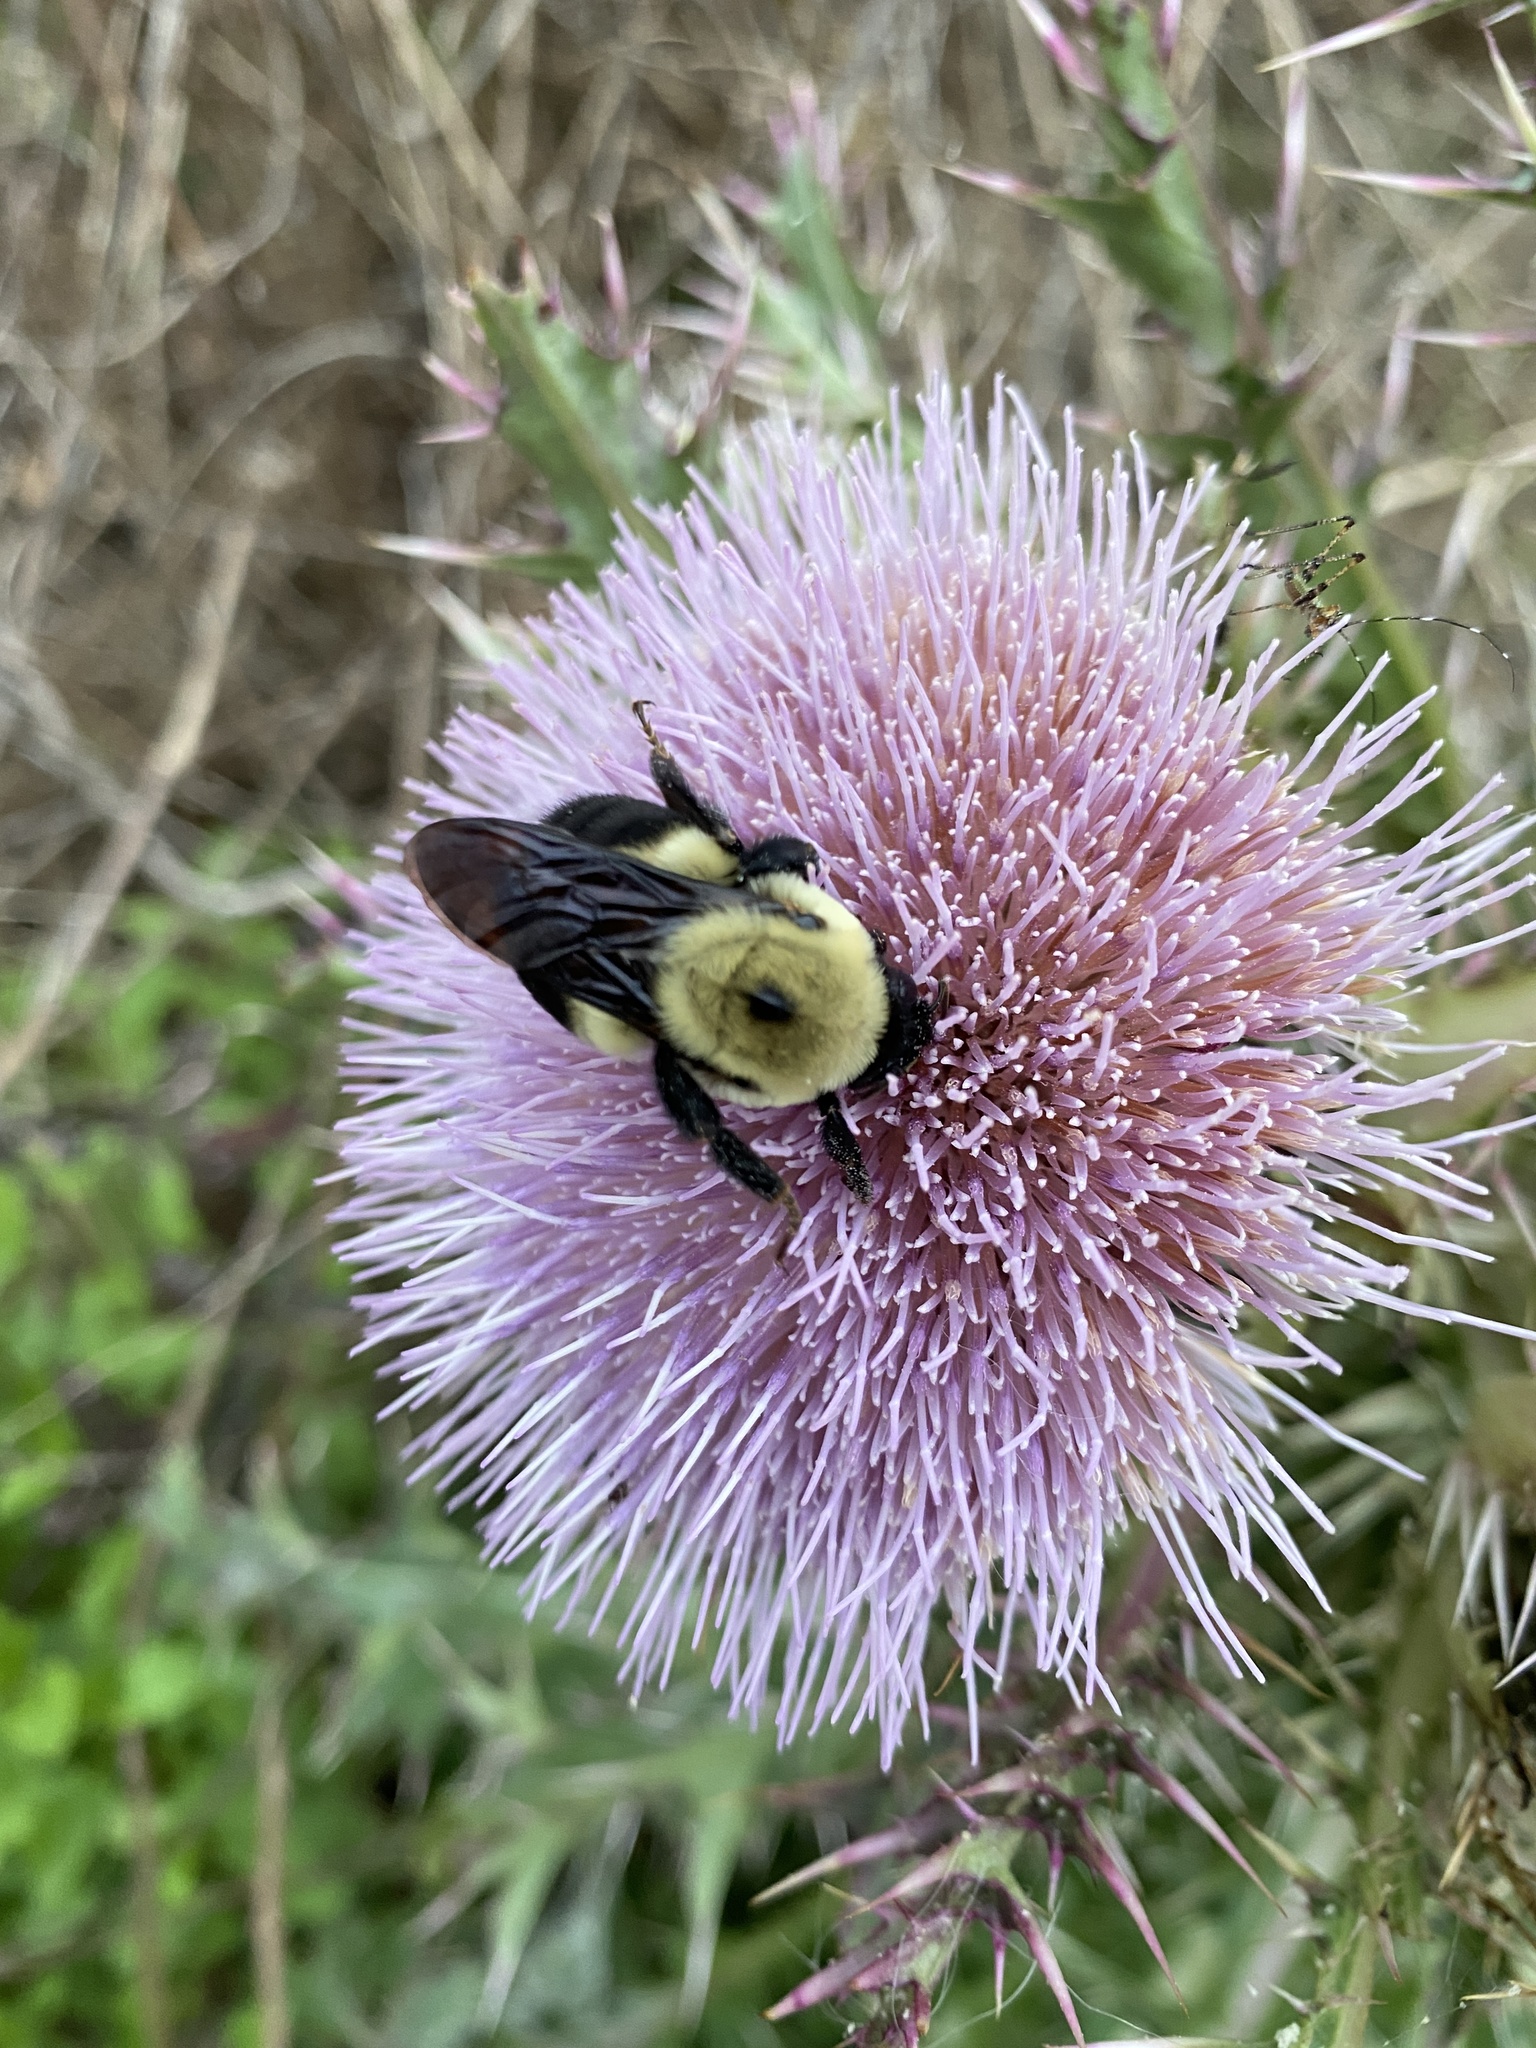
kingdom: Animalia
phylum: Arthropoda
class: Insecta
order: Hymenoptera
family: Apidae
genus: Bombus
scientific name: Bombus griseocollis
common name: Brown-belted bumble bee
